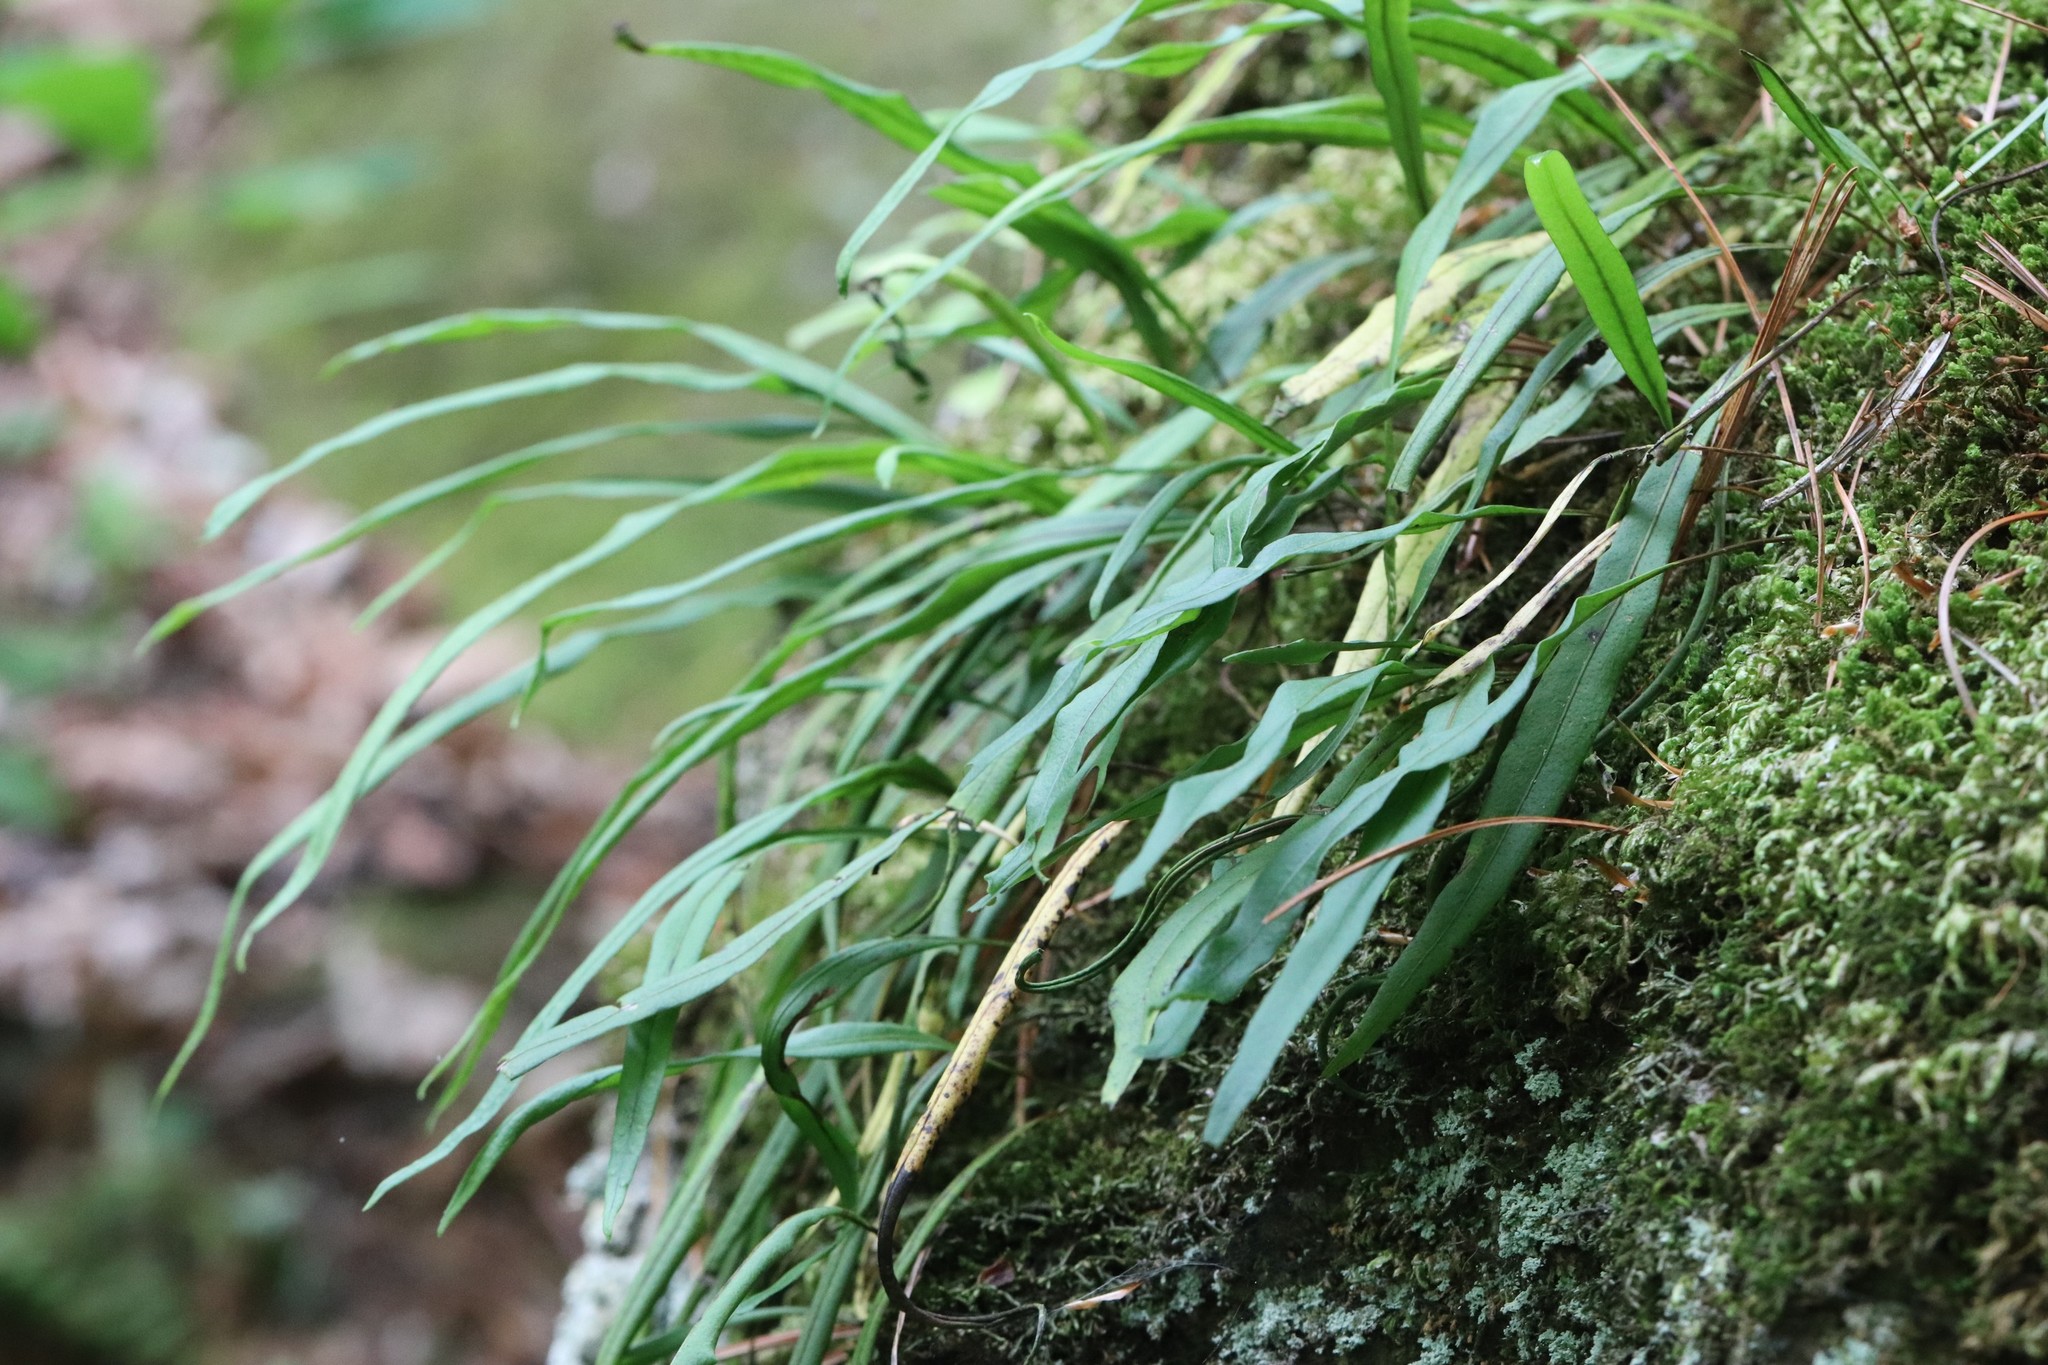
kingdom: Plantae
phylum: Tracheophyta
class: Polypodiopsida
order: Polypodiales
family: Polypodiaceae
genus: Lepisorus
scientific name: Lepisorus ussuriensis
